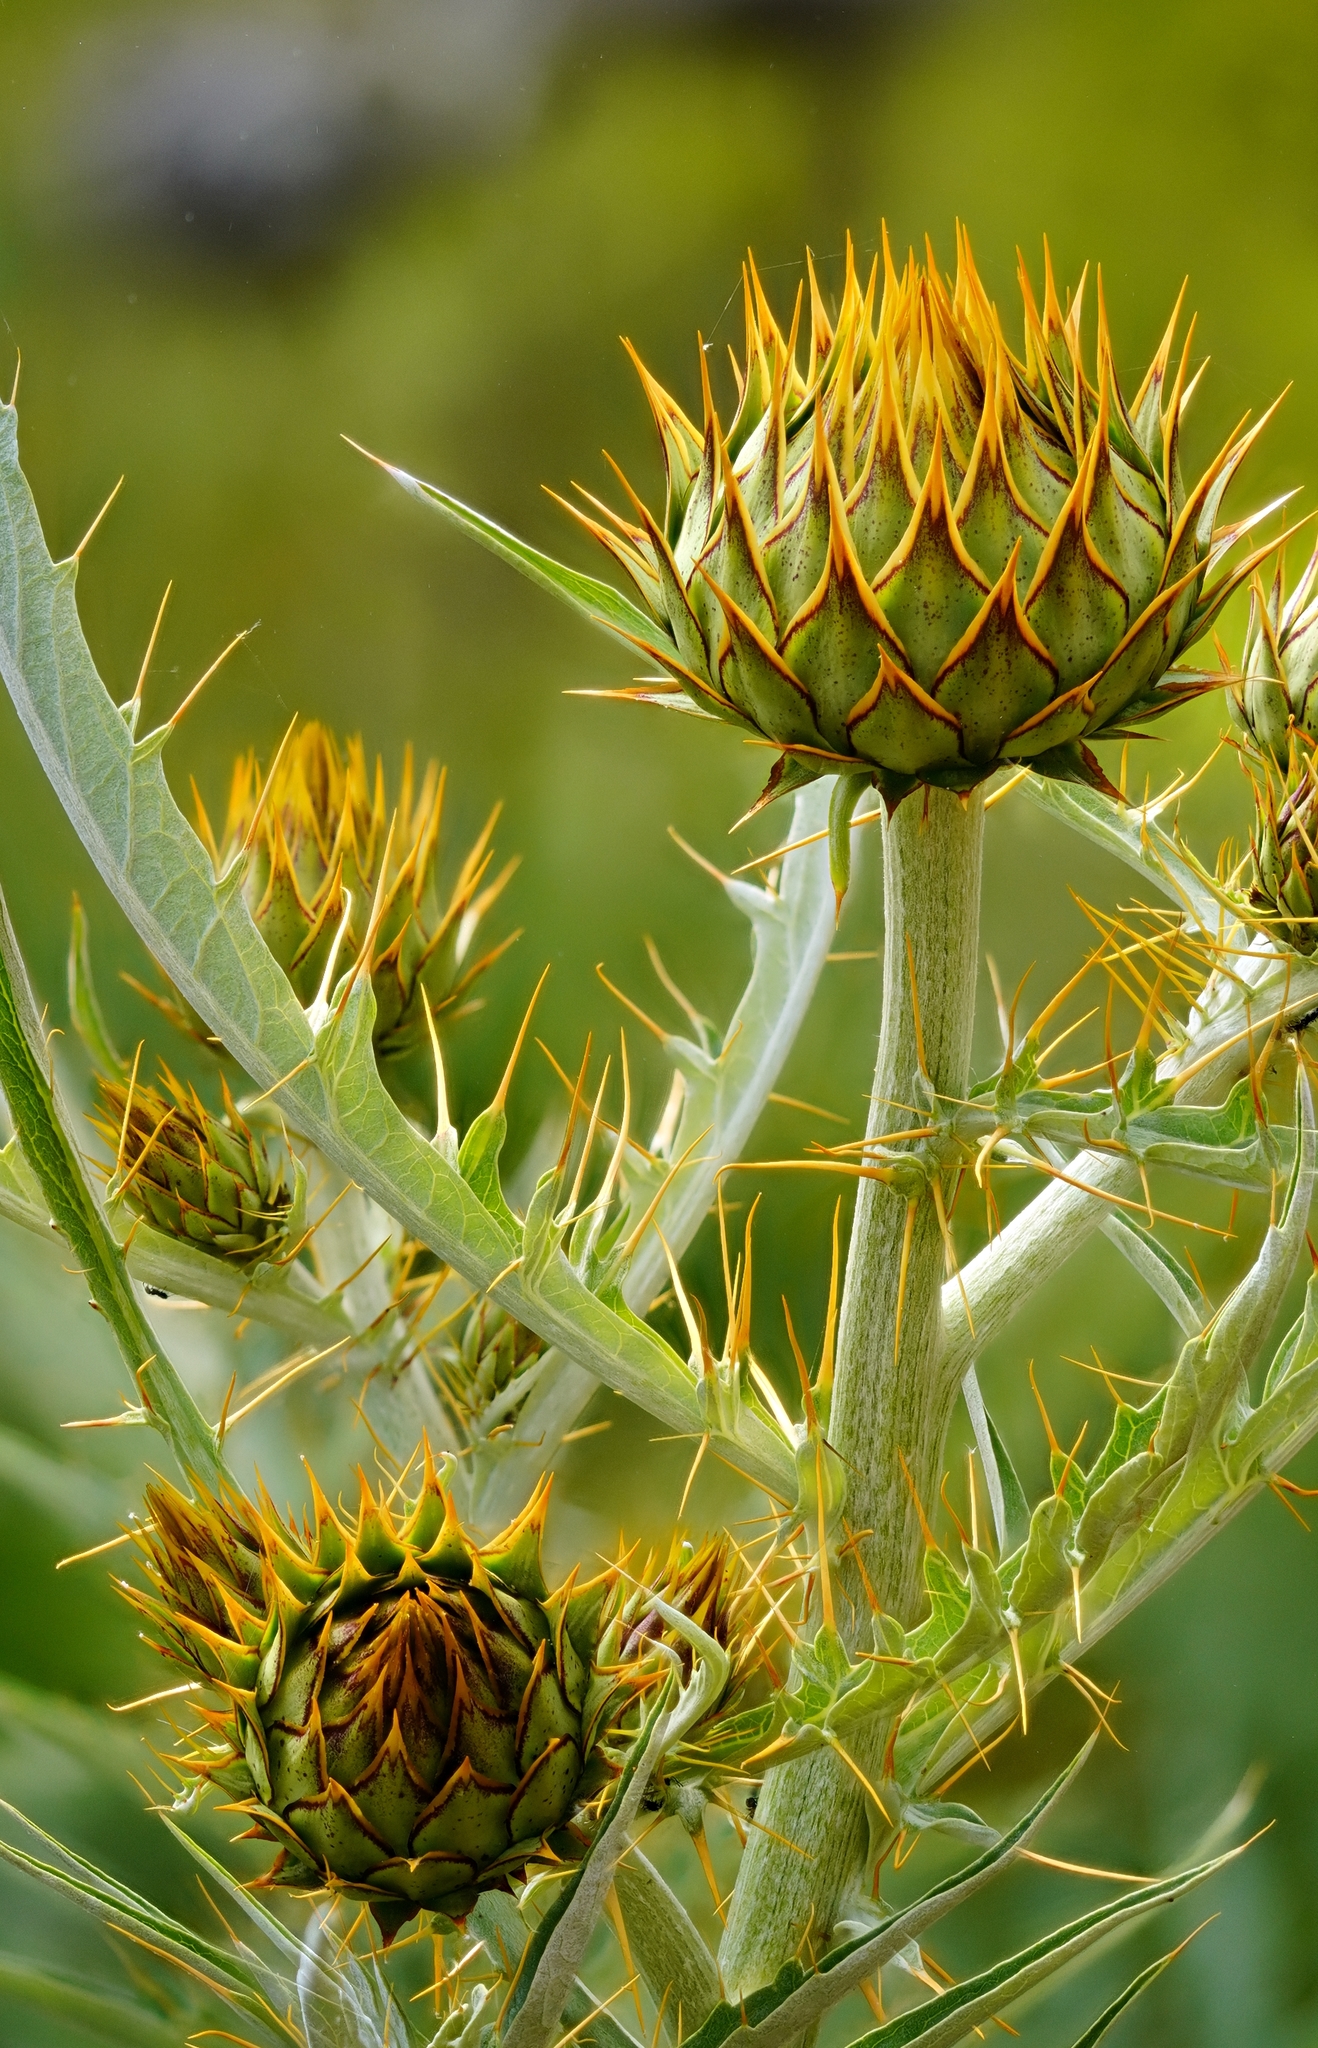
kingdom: Plantae
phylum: Tracheophyta
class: Magnoliopsida
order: Asterales
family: Asteraceae
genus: Cynara
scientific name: Cynara cardunculus
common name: Globe artichoke
